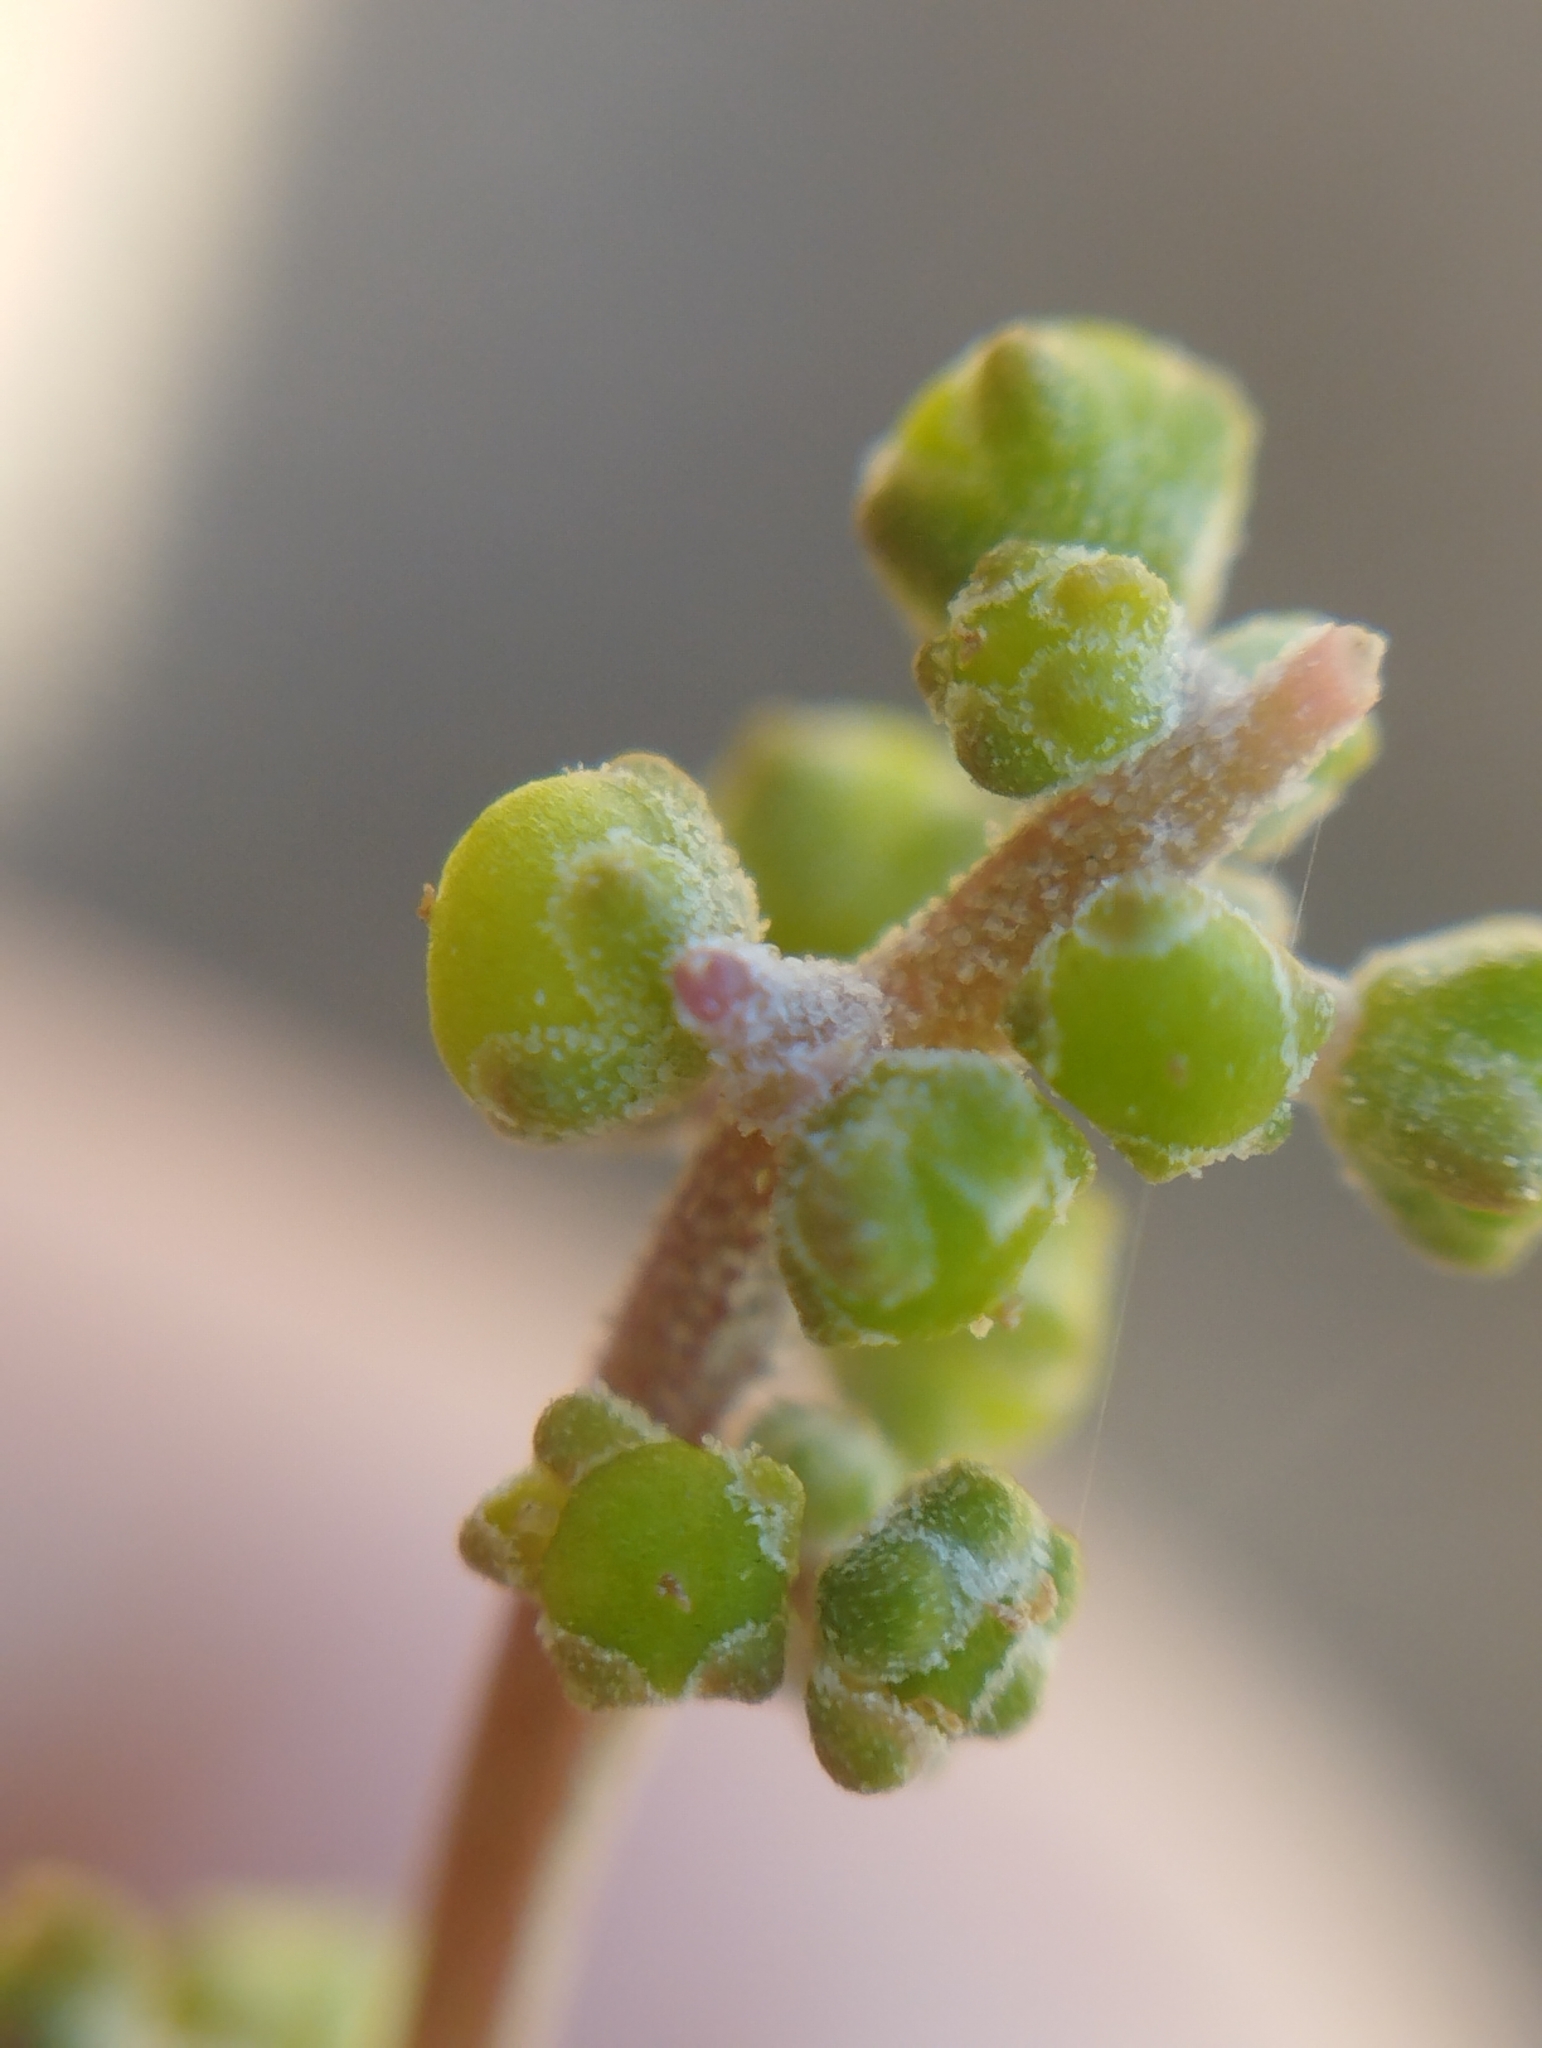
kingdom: Plantae
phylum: Tracheophyta
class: Magnoliopsida
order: Caryophyllales
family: Amaranthaceae
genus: Chenopodium
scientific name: Chenopodium triandrum
